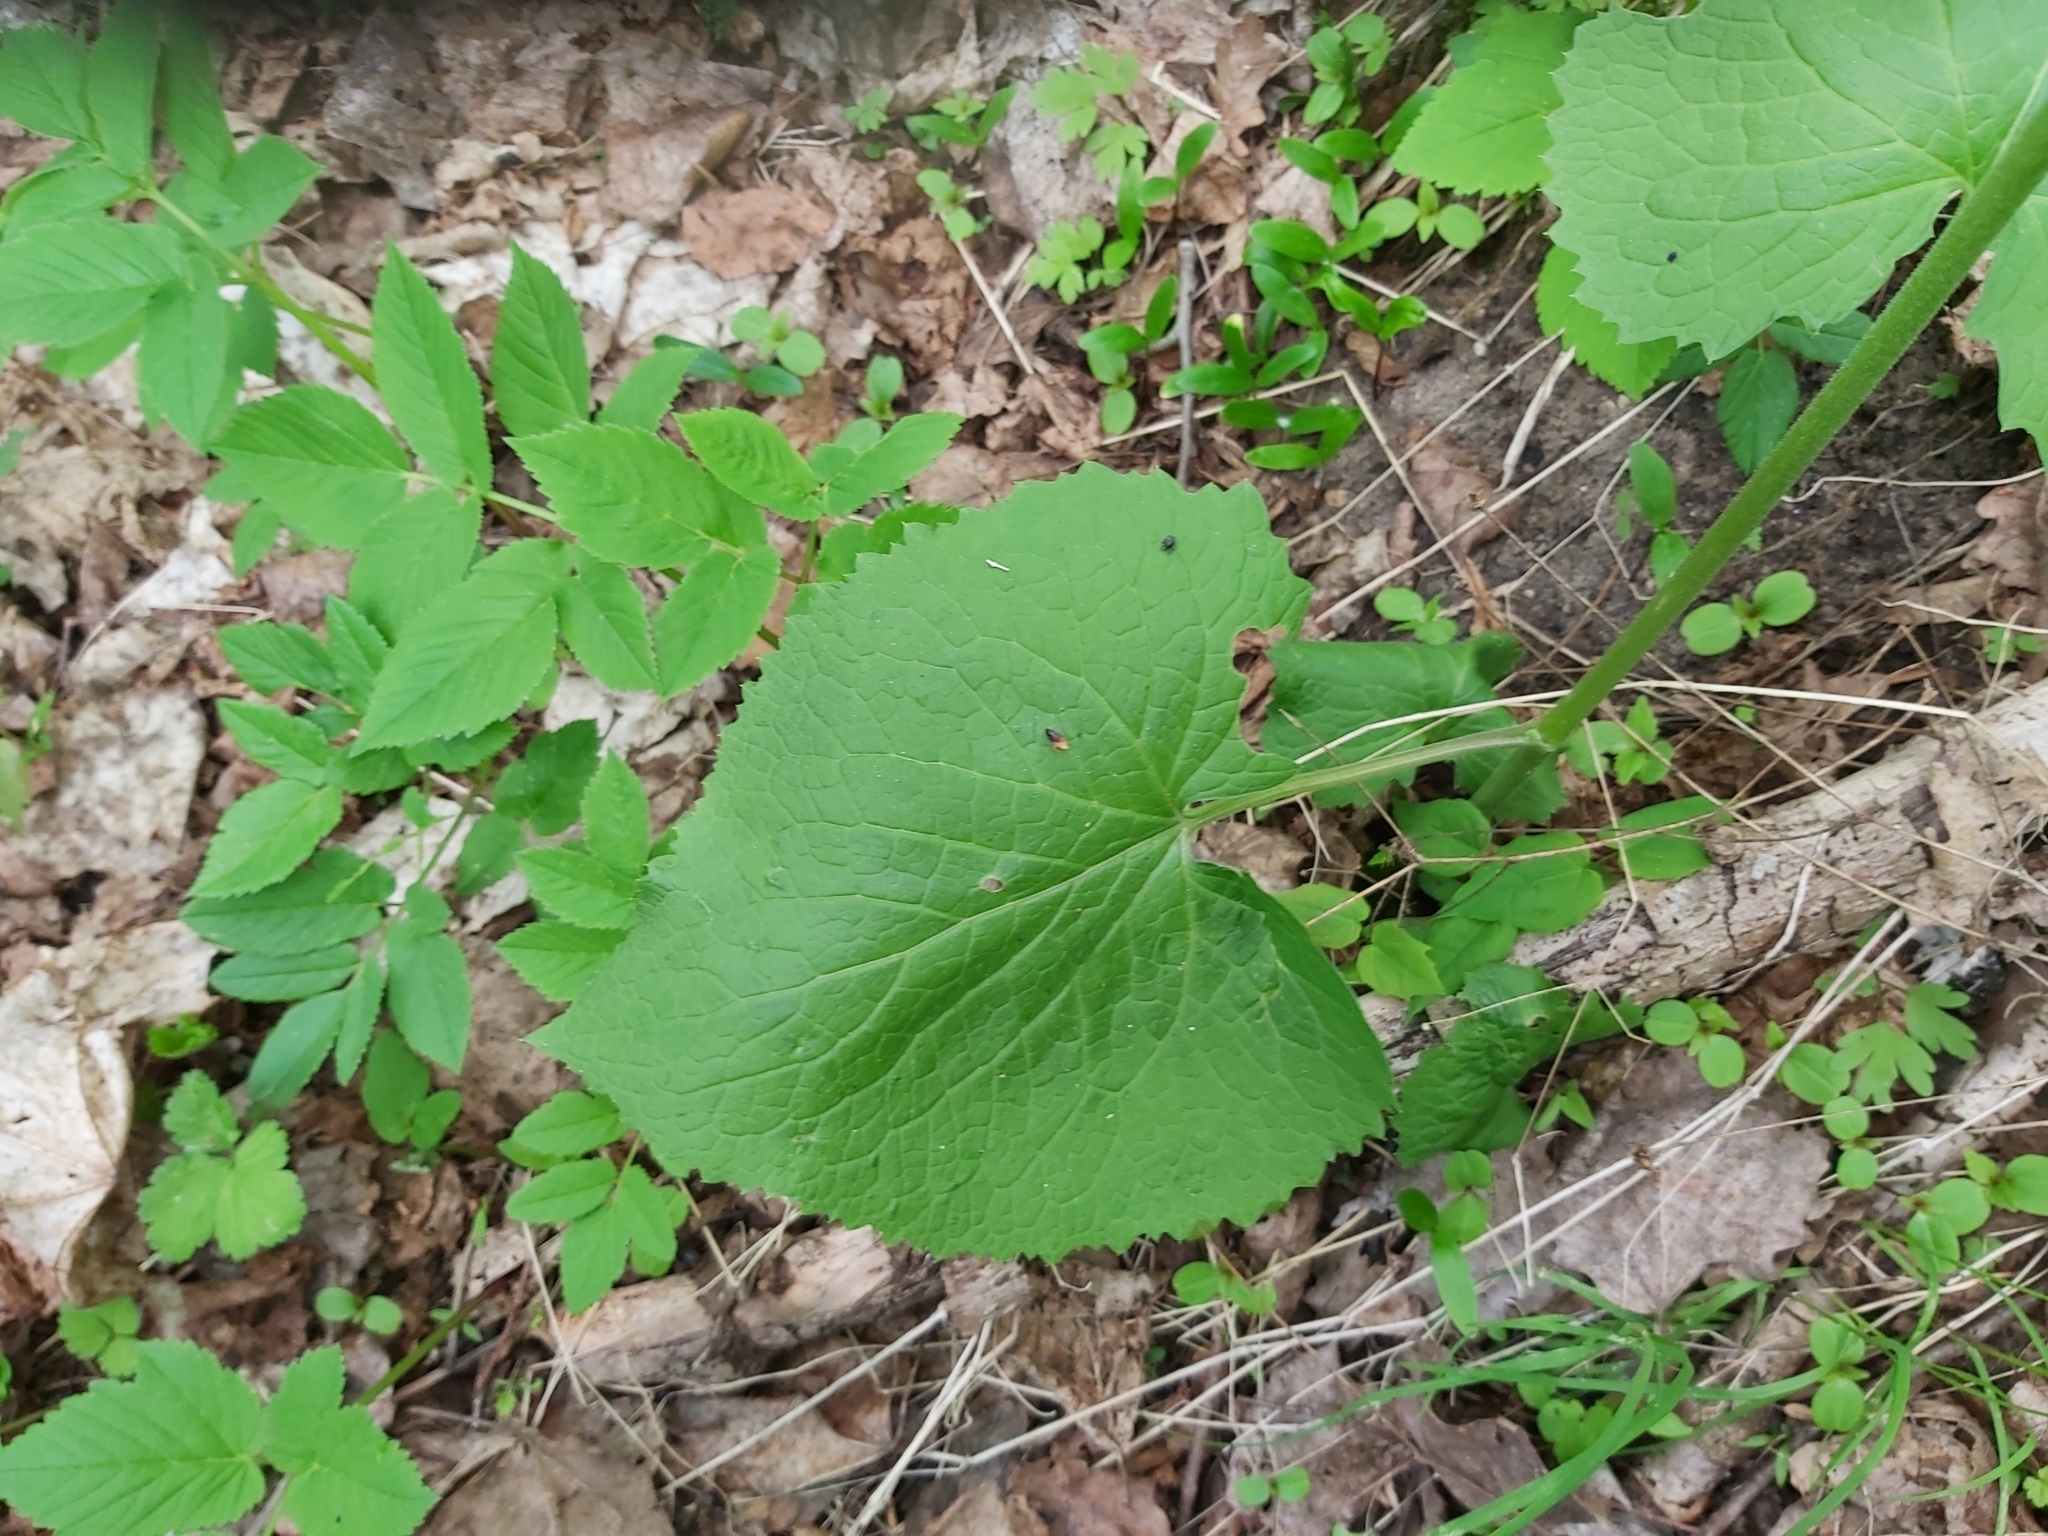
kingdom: Plantae
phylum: Tracheophyta
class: Magnoliopsida
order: Brassicales
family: Brassicaceae
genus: Lunaria
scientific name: Lunaria rediviva
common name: Perennial honesty
